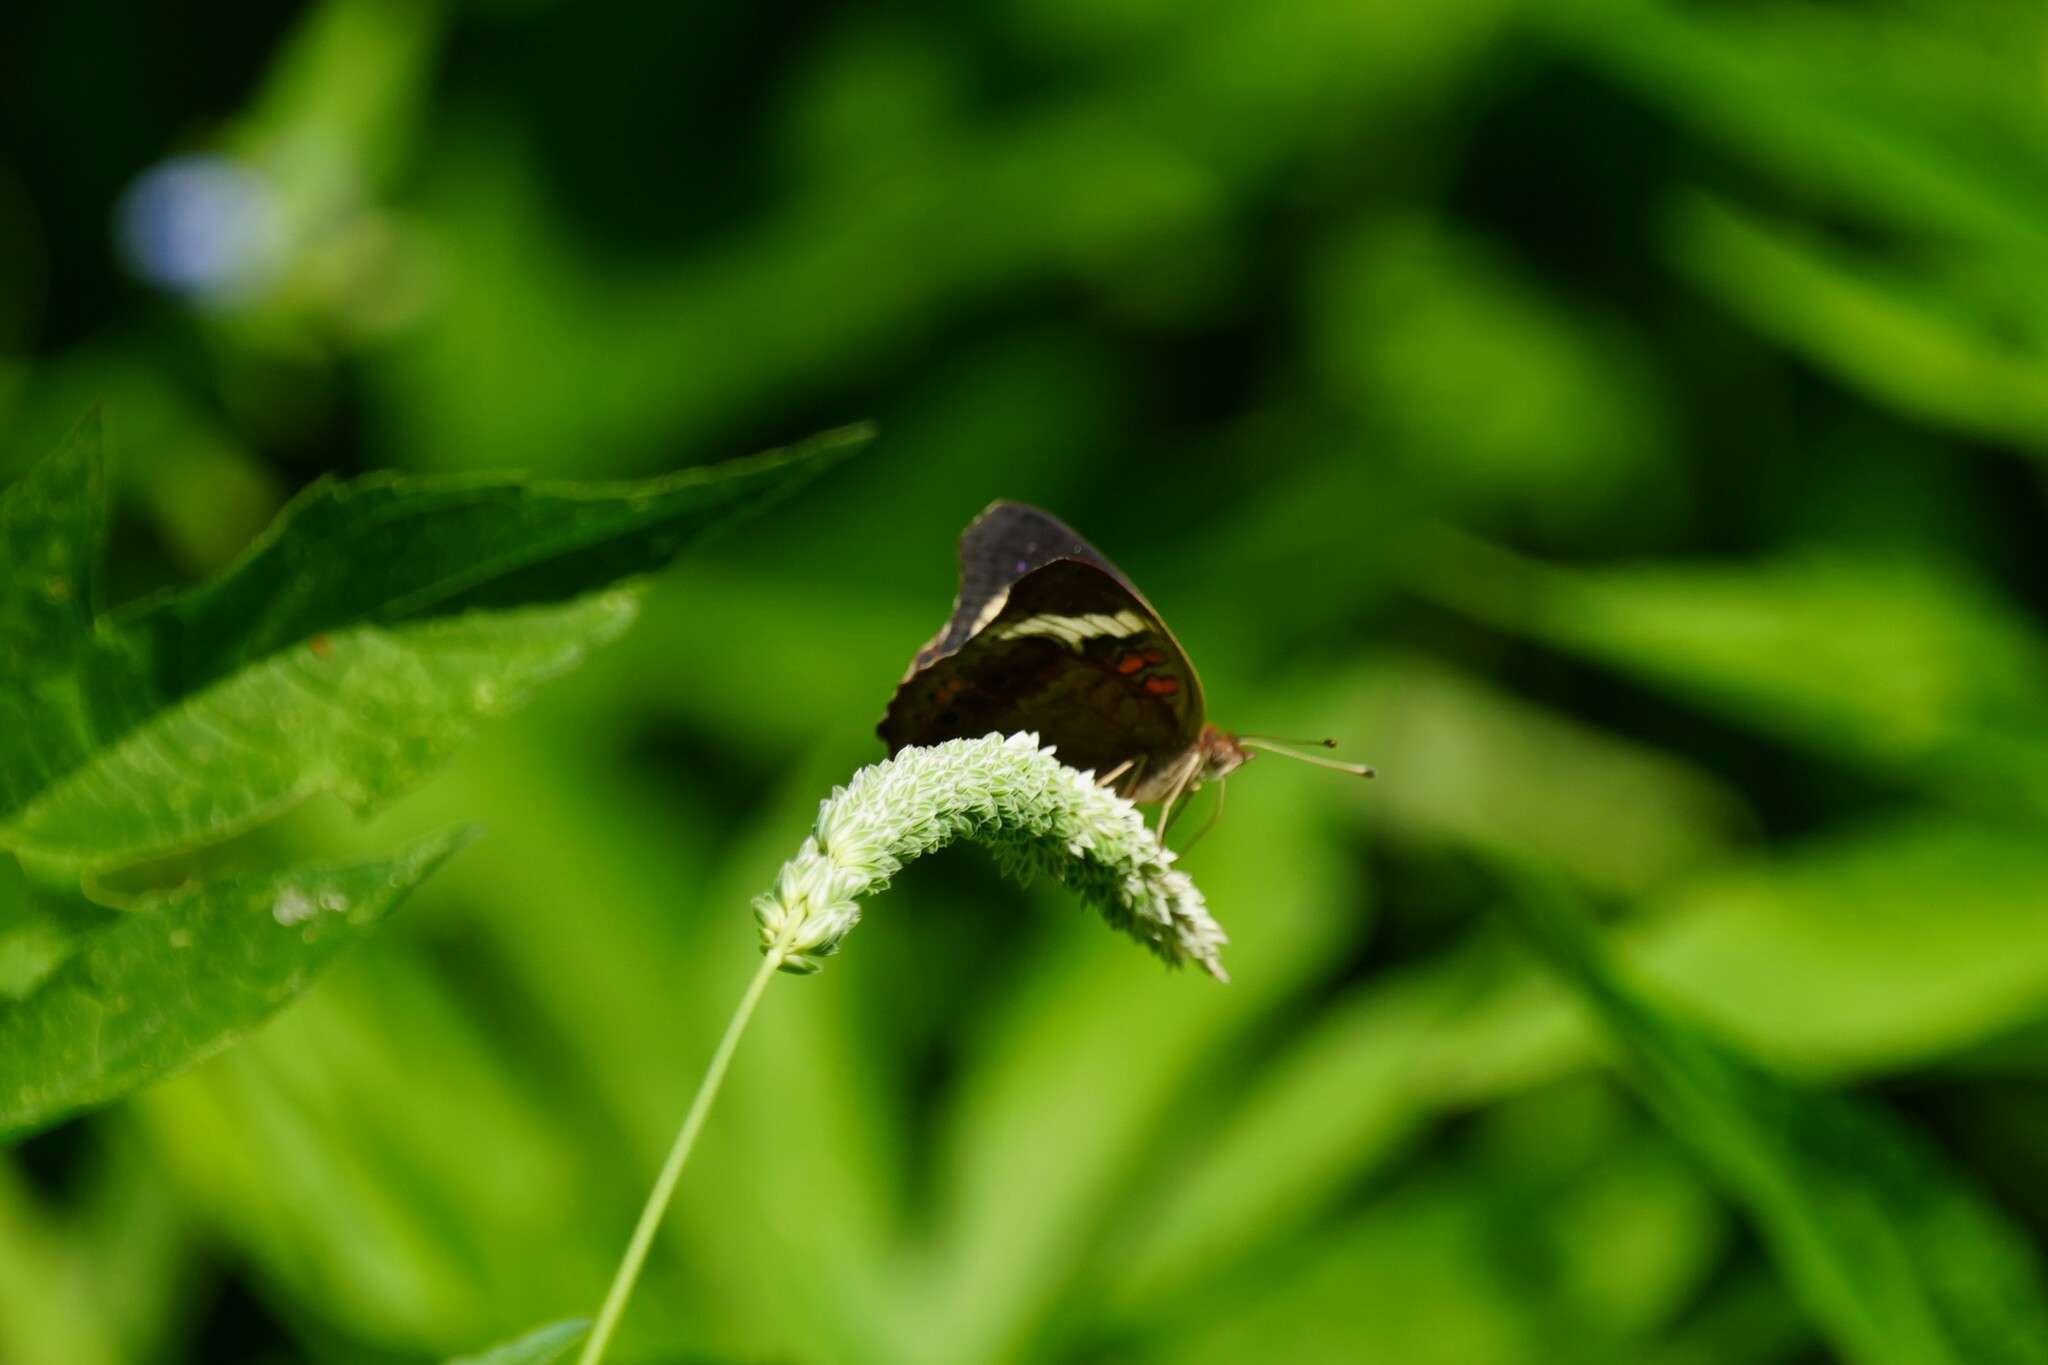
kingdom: Animalia
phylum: Arthropoda
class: Insecta
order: Lepidoptera
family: Nymphalidae
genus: Junonia
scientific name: Junonia coenia
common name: Common buckeye
